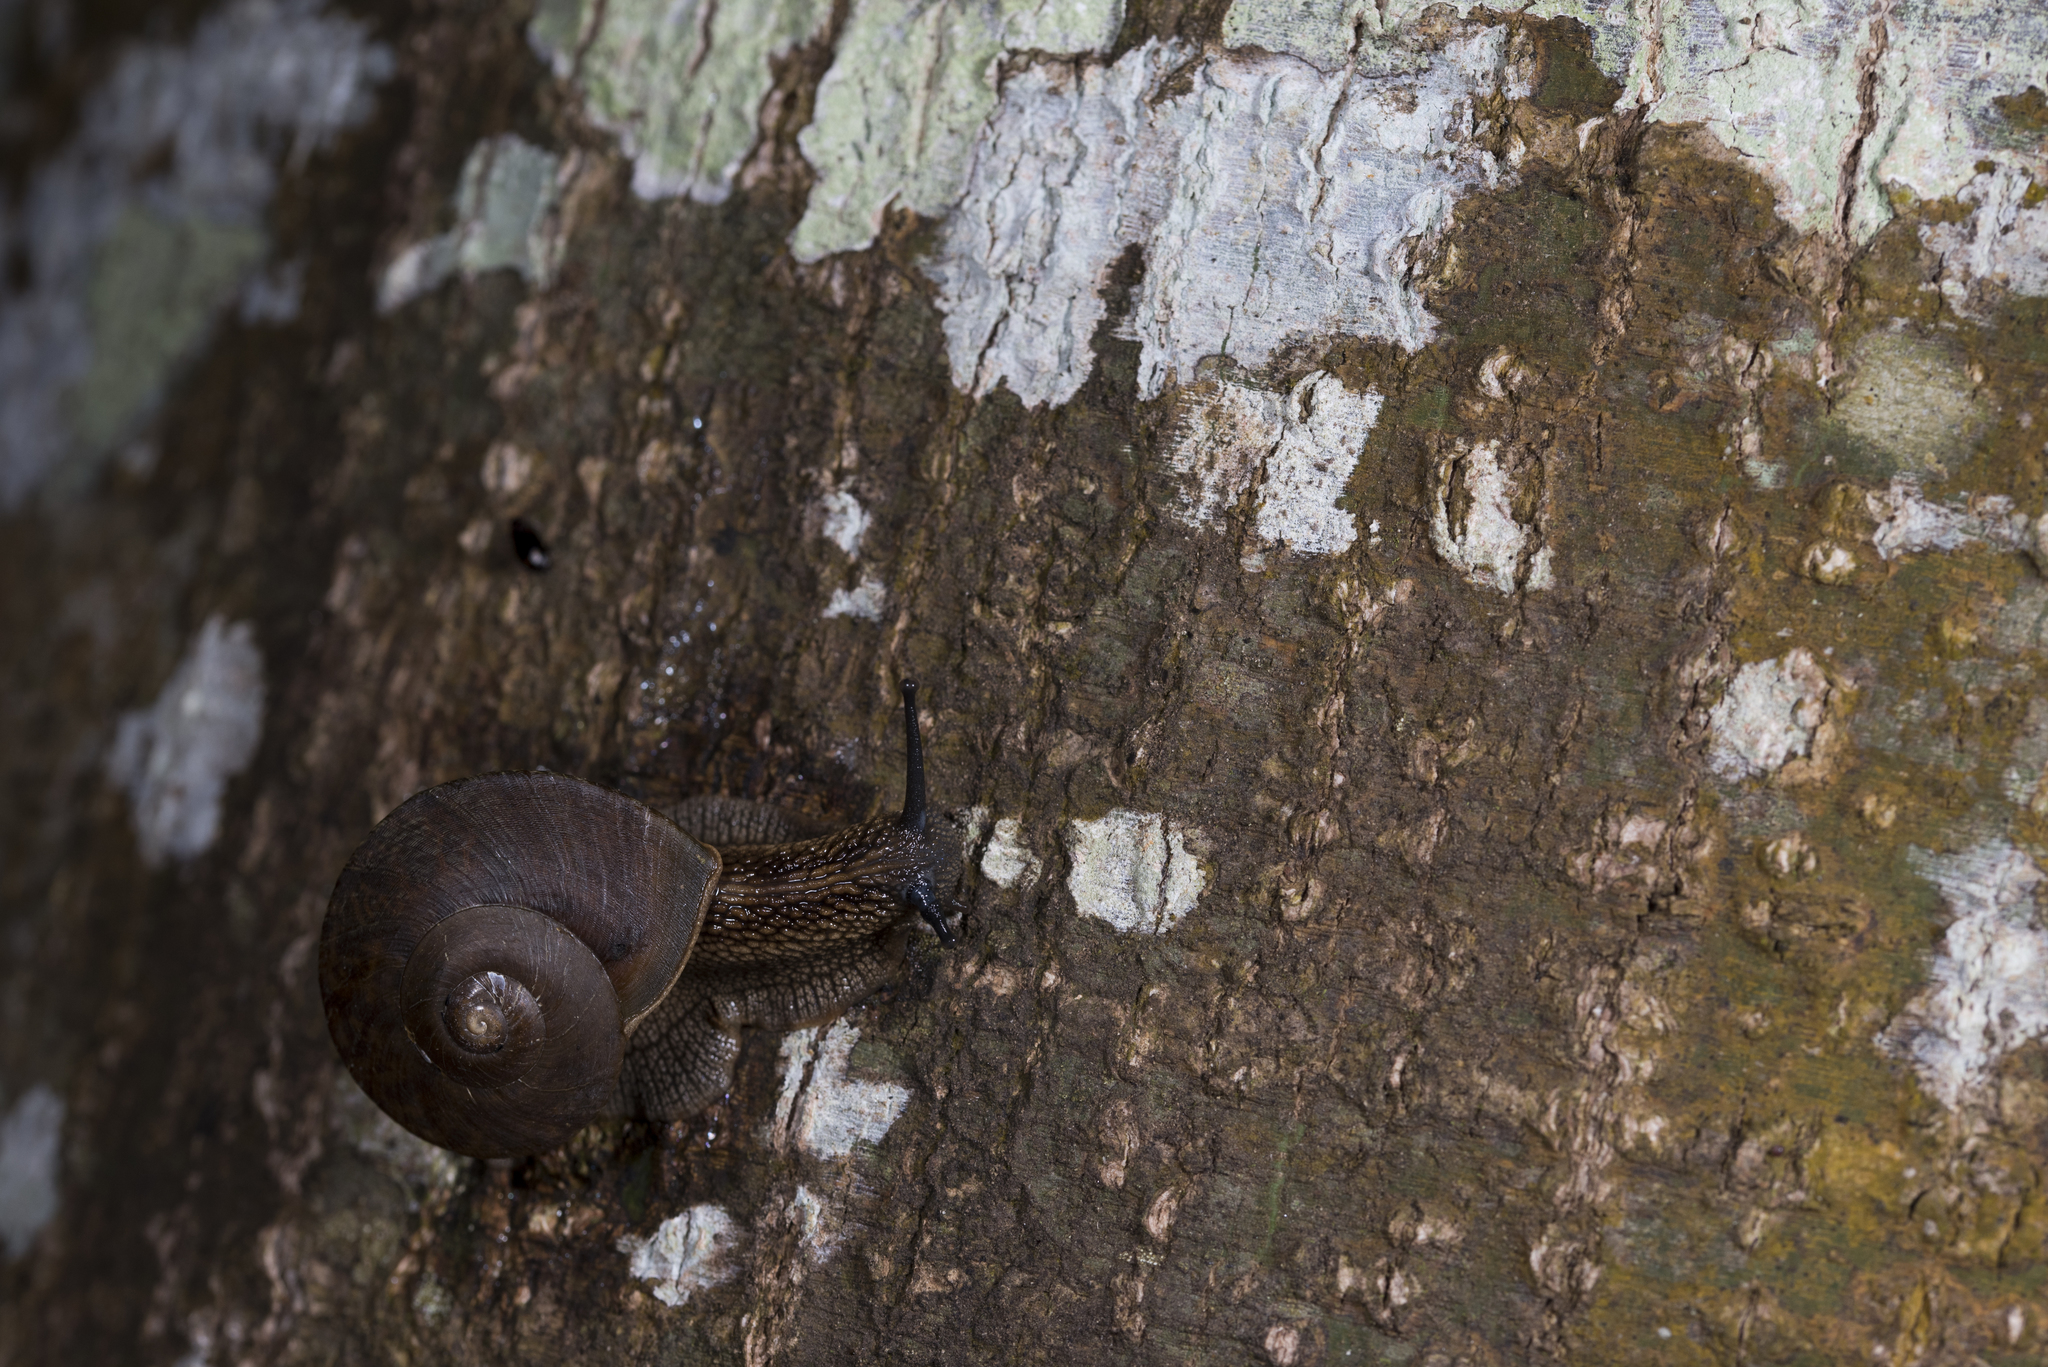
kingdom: Animalia
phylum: Mollusca
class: Gastropoda
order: Stylommatophora
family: Camaenidae
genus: Nesiohelix
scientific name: Nesiohelix swinhoei
